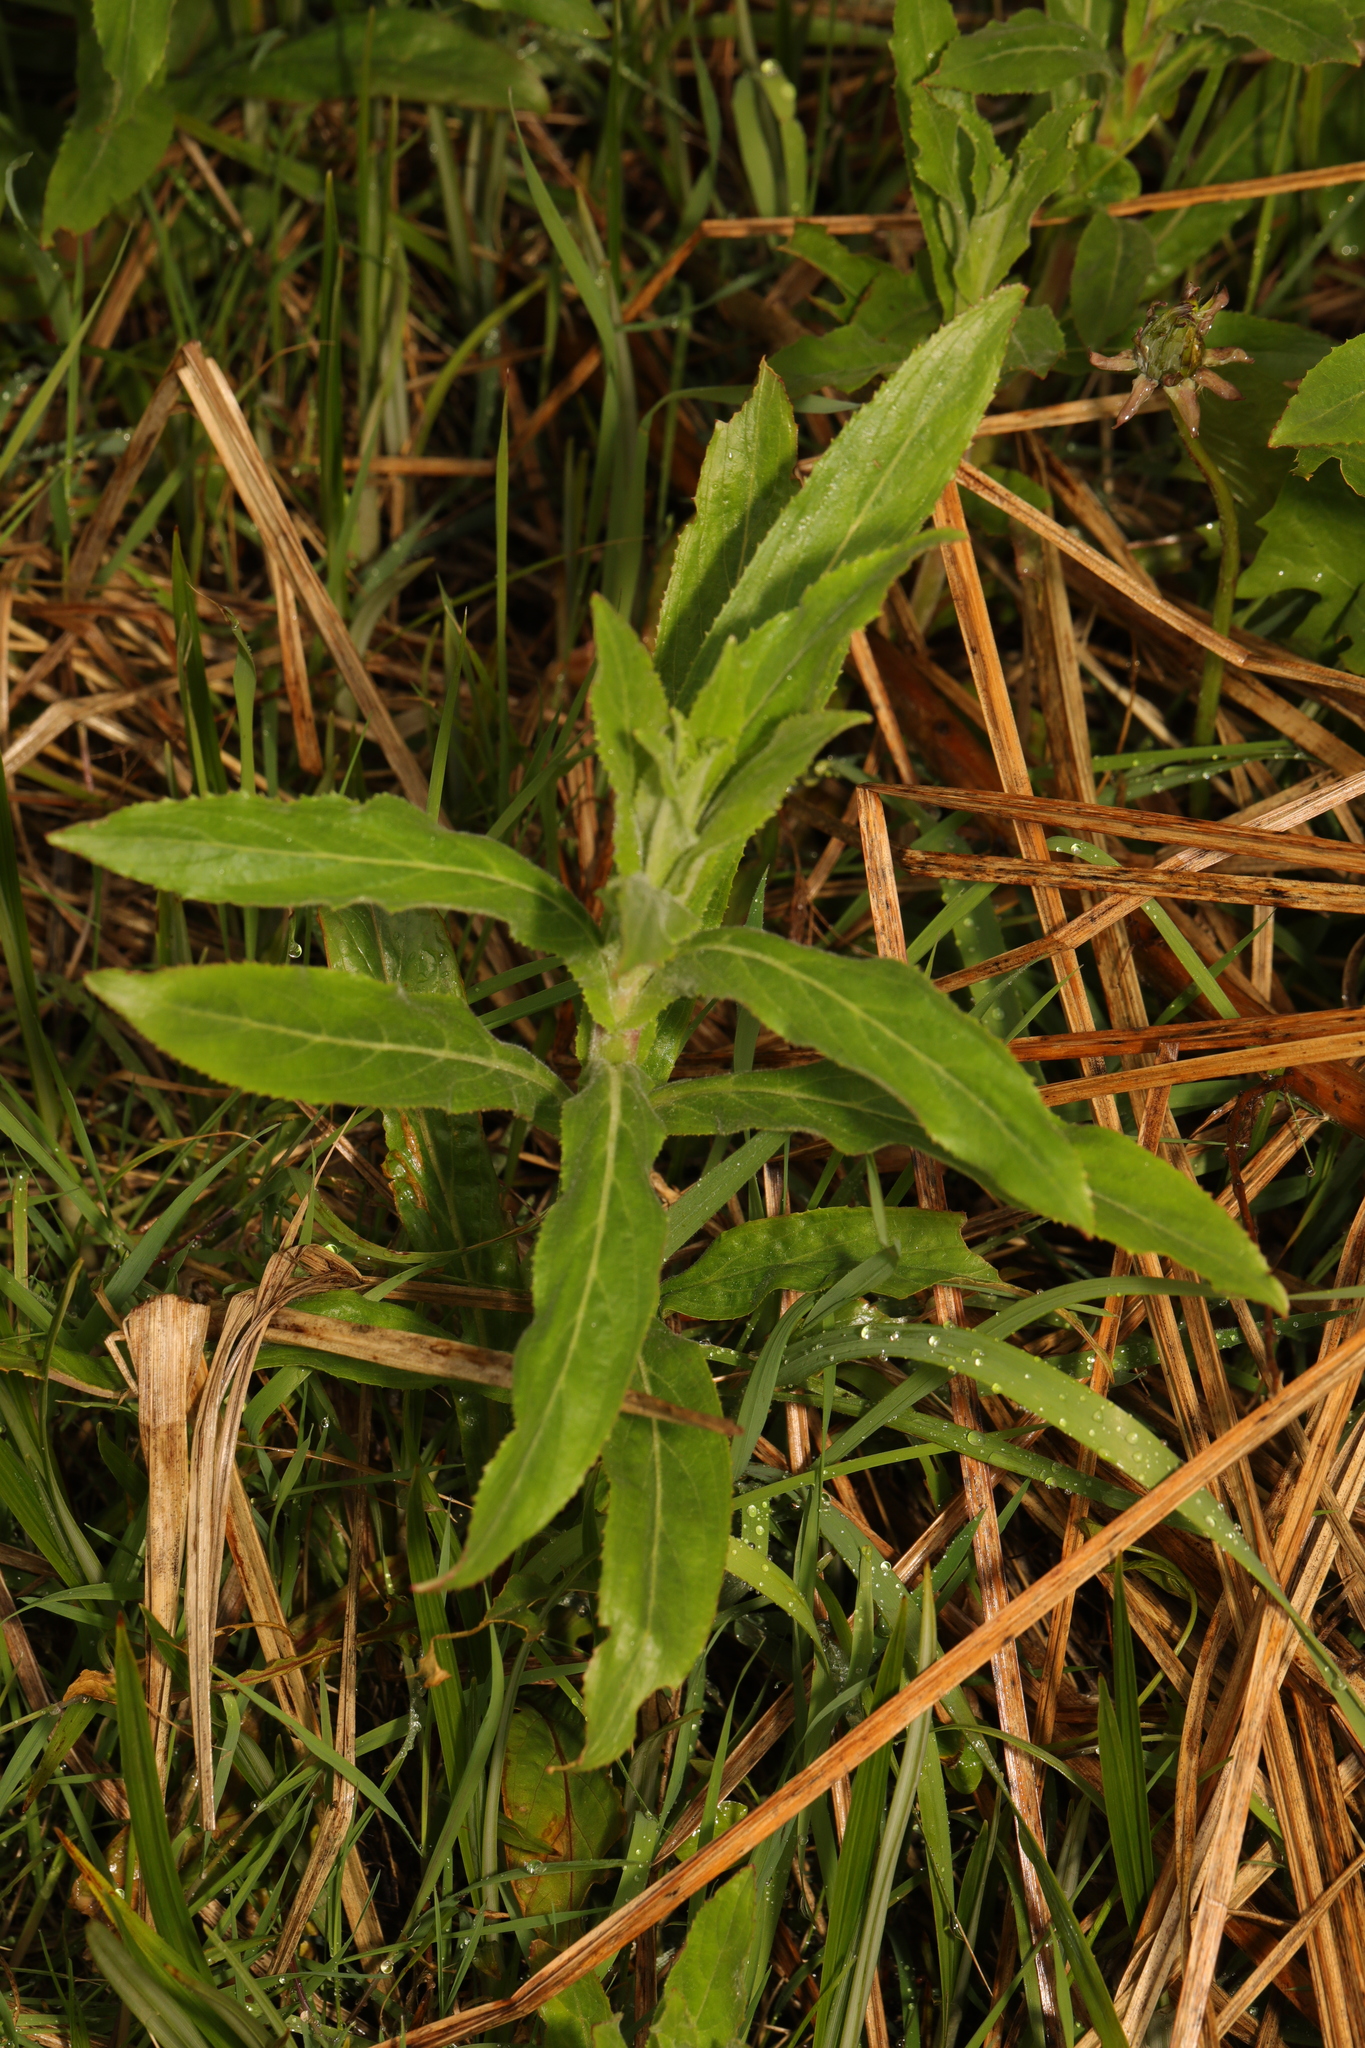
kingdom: Plantae
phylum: Tracheophyta
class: Magnoliopsida
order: Myrtales
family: Onagraceae
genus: Epilobium
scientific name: Epilobium hirsutum
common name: Great willowherb
